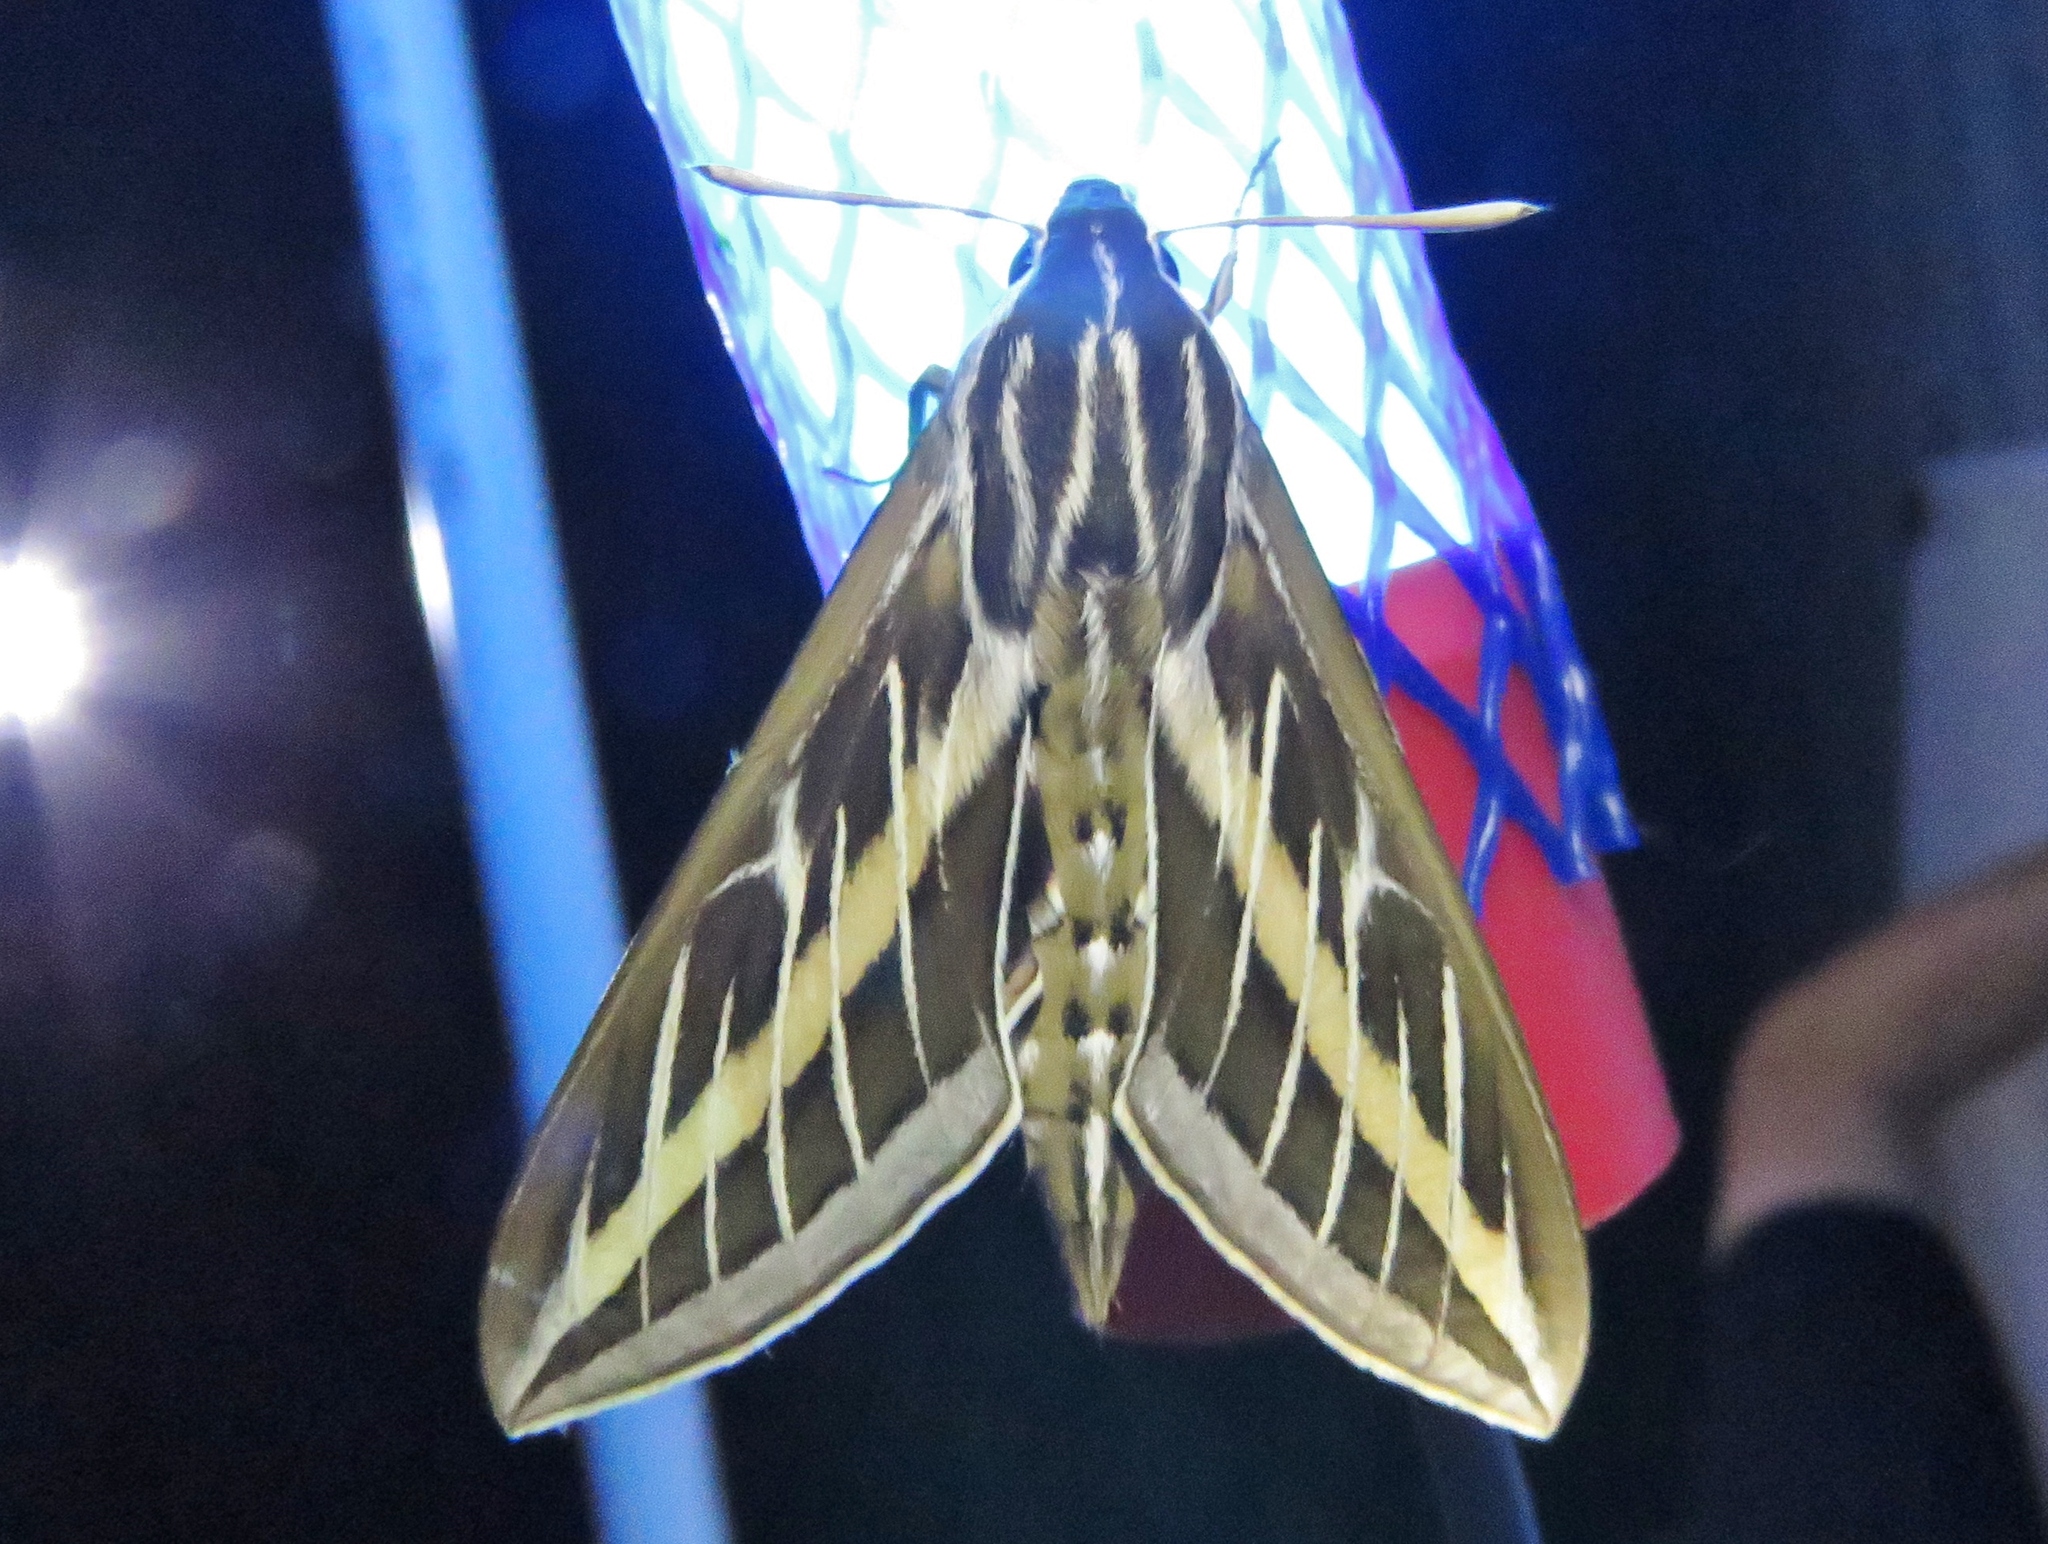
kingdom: Animalia
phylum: Arthropoda
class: Insecta
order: Lepidoptera
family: Sphingidae
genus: Hyles
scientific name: Hyles lineata
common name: White-lined sphinx
